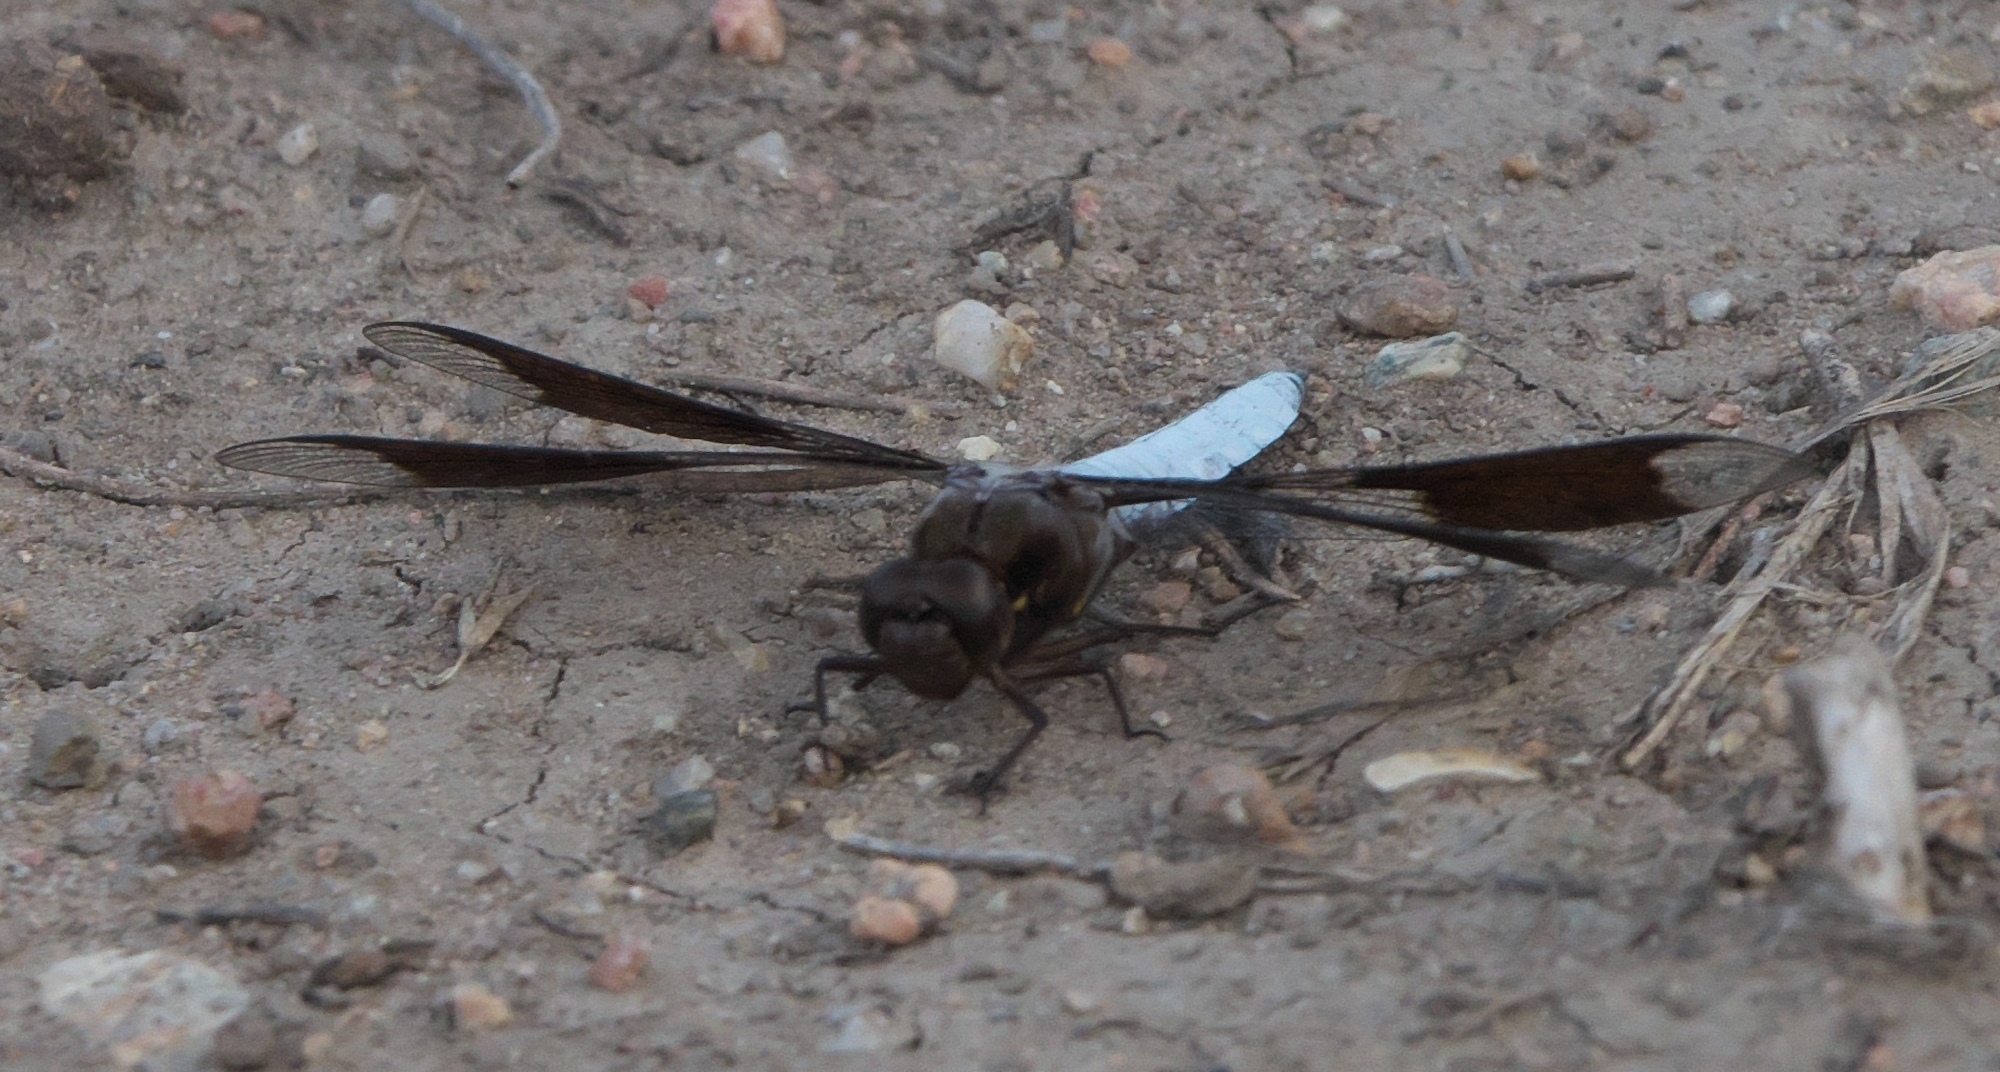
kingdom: Animalia
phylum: Arthropoda
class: Insecta
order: Odonata
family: Libellulidae
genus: Plathemis
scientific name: Plathemis lydia
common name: Common whitetail
